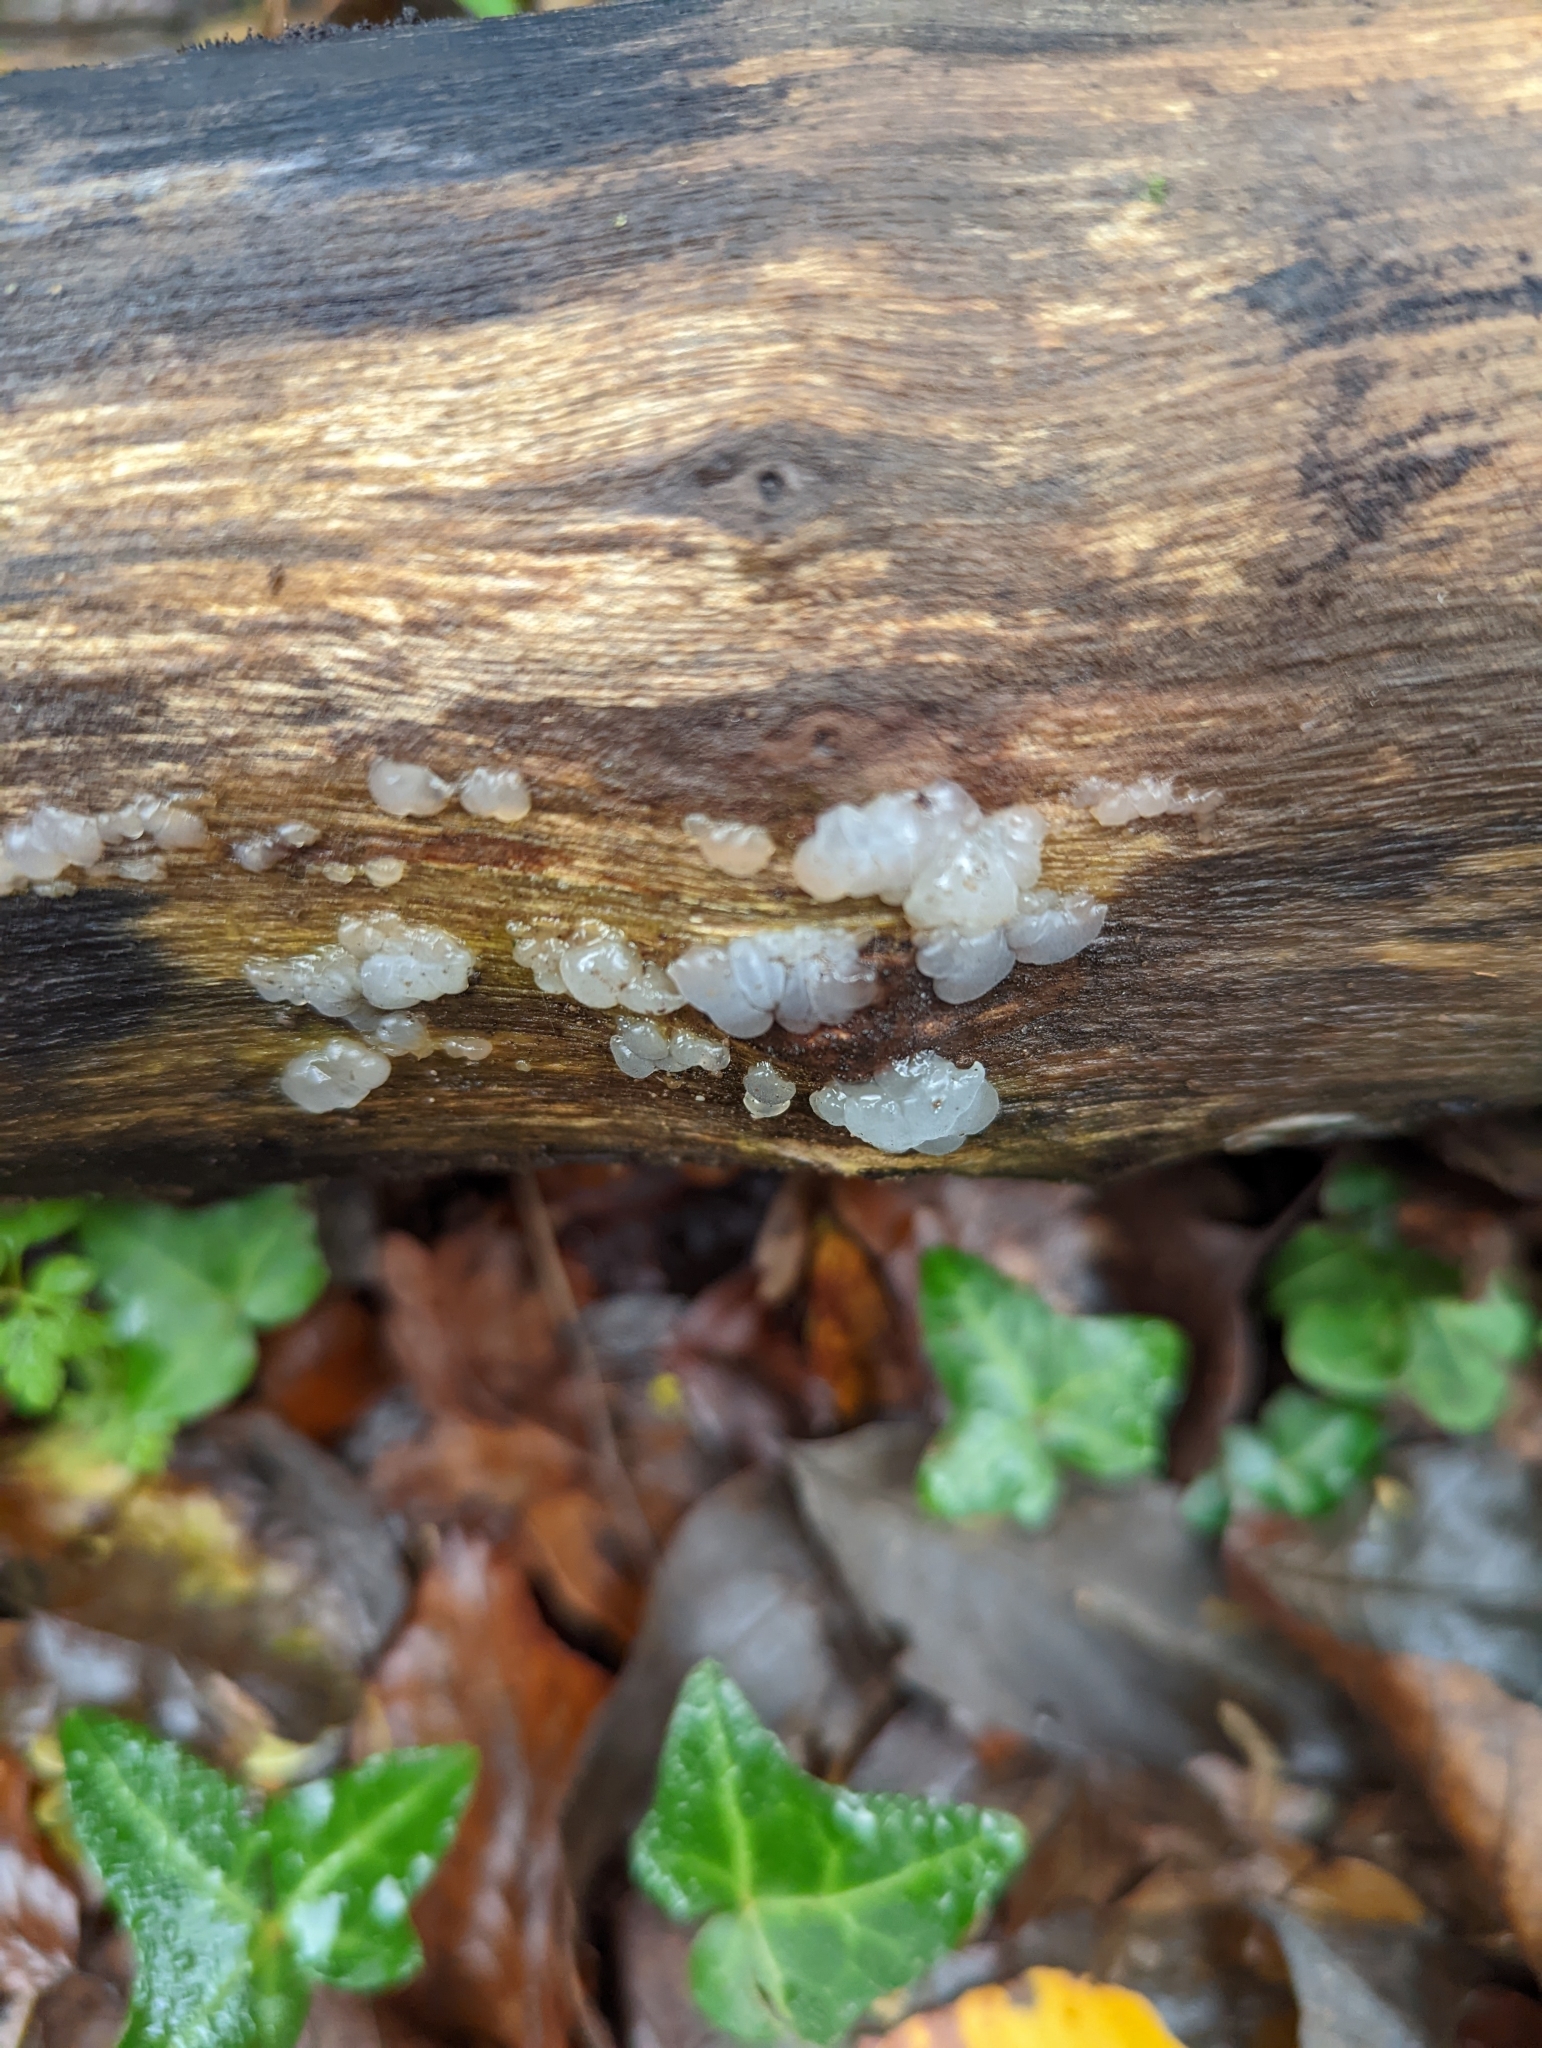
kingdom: Fungi
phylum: Basidiomycota
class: Agaricomycetes
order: Auriculariales
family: Hyaloriaceae
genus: Myxarium
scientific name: Myxarium nucleatum
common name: Crystal brain fungus
